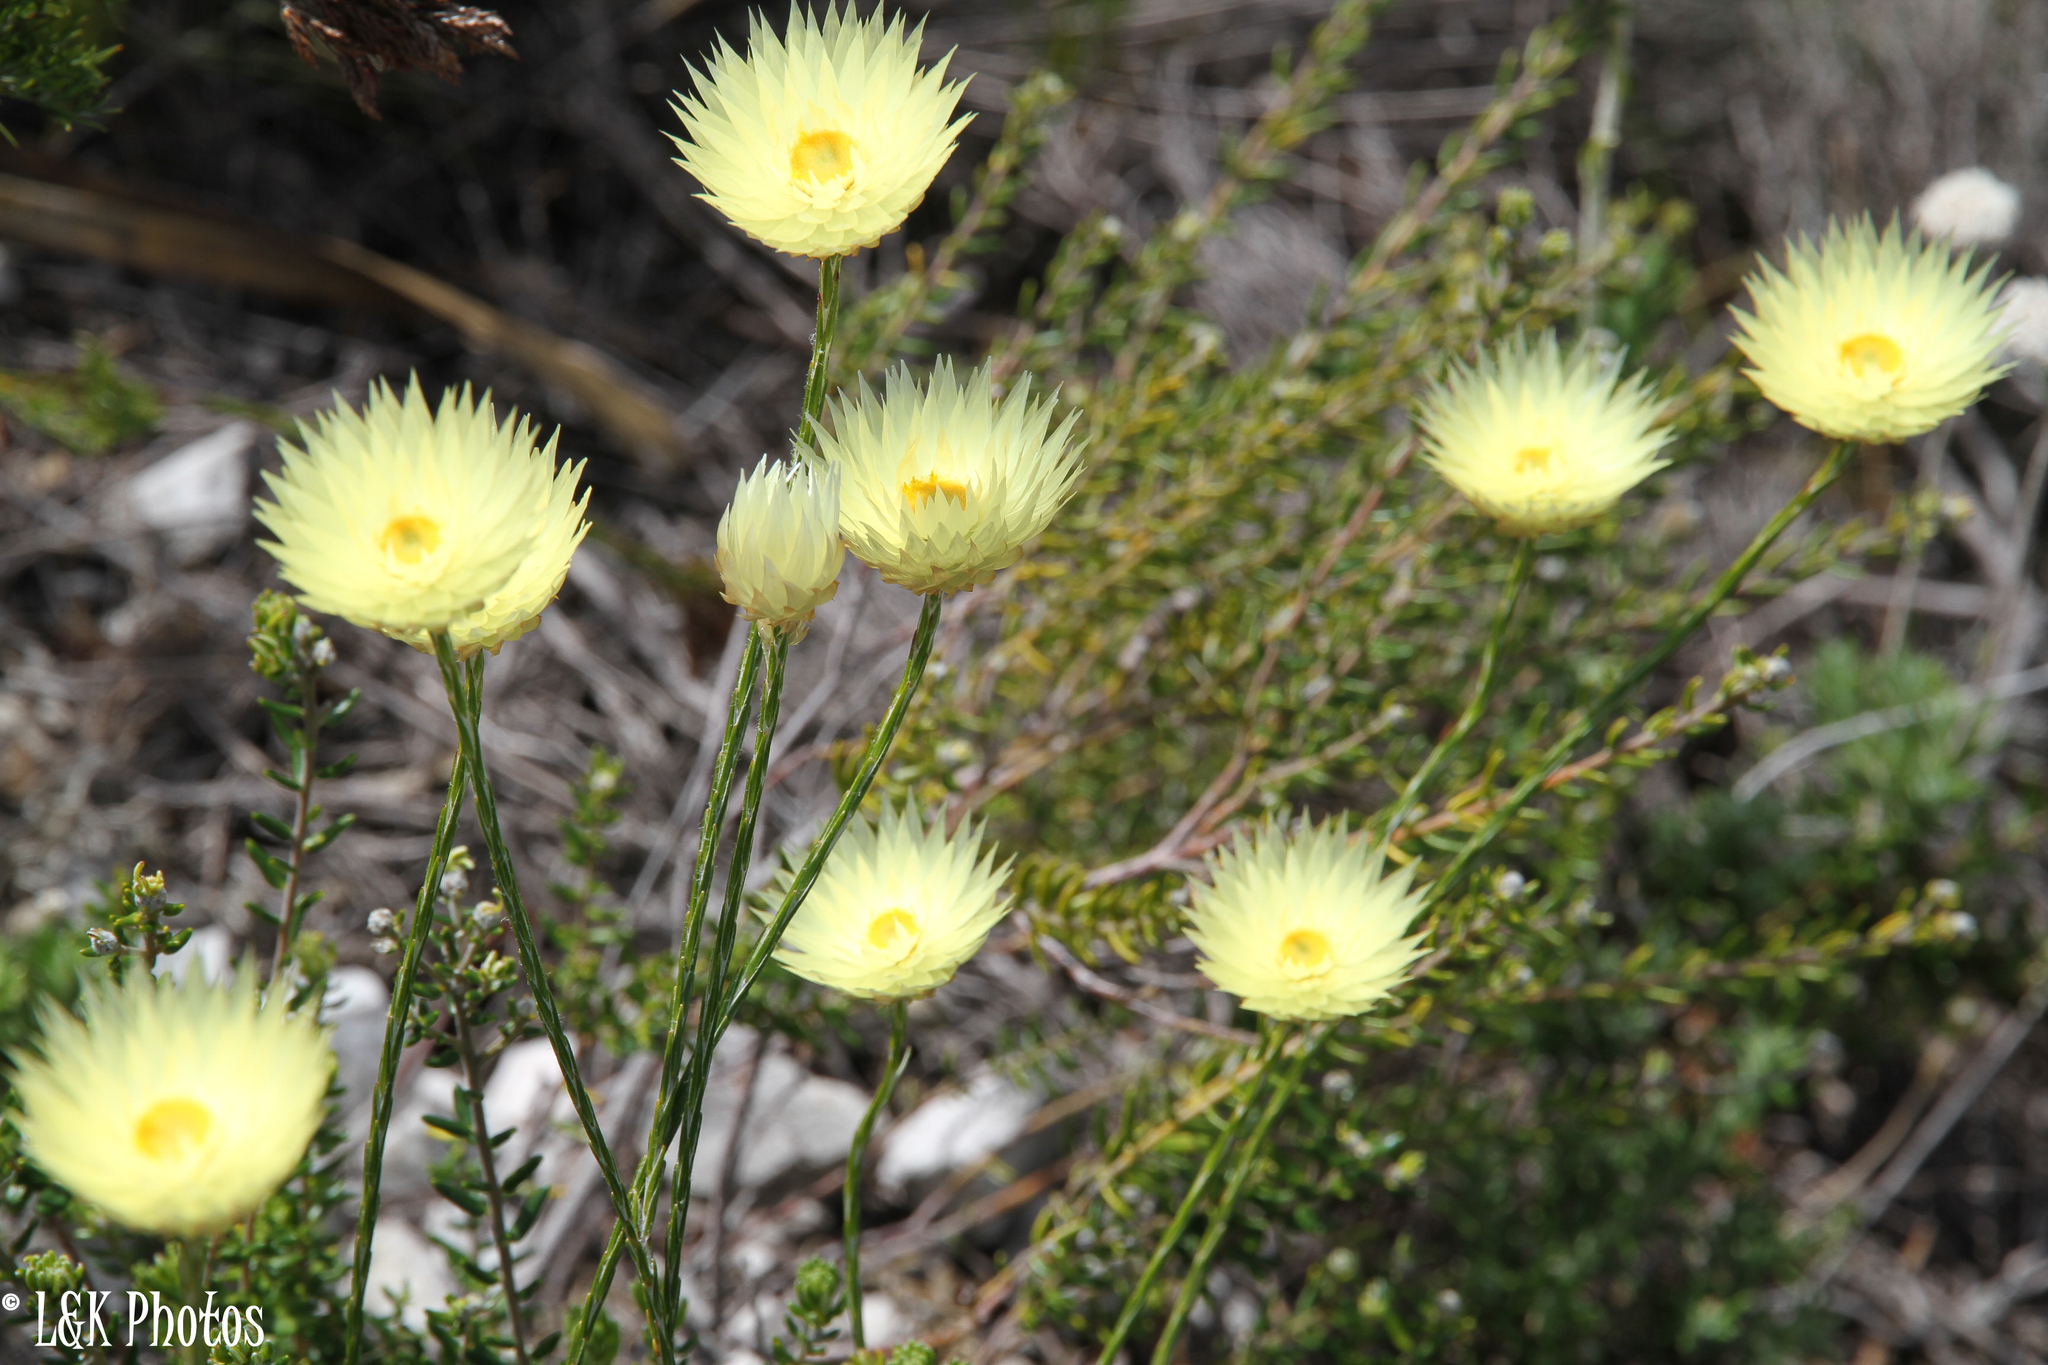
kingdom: Plantae
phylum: Tracheophyta
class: Magnoliopsida
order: Asterales
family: Asteraceae
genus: Edmondia
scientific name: Edmondia sesamoides
